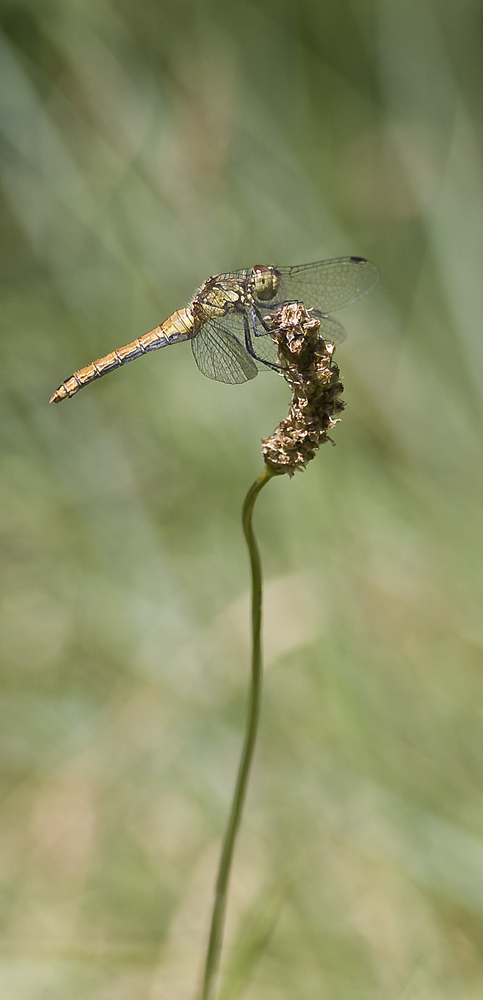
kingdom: Animalia
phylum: Arthropoda
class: Insecta
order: Odonata
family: Libellulidae
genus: Sympetrum
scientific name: Sympetrum sanguineum
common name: Ruddy darter
